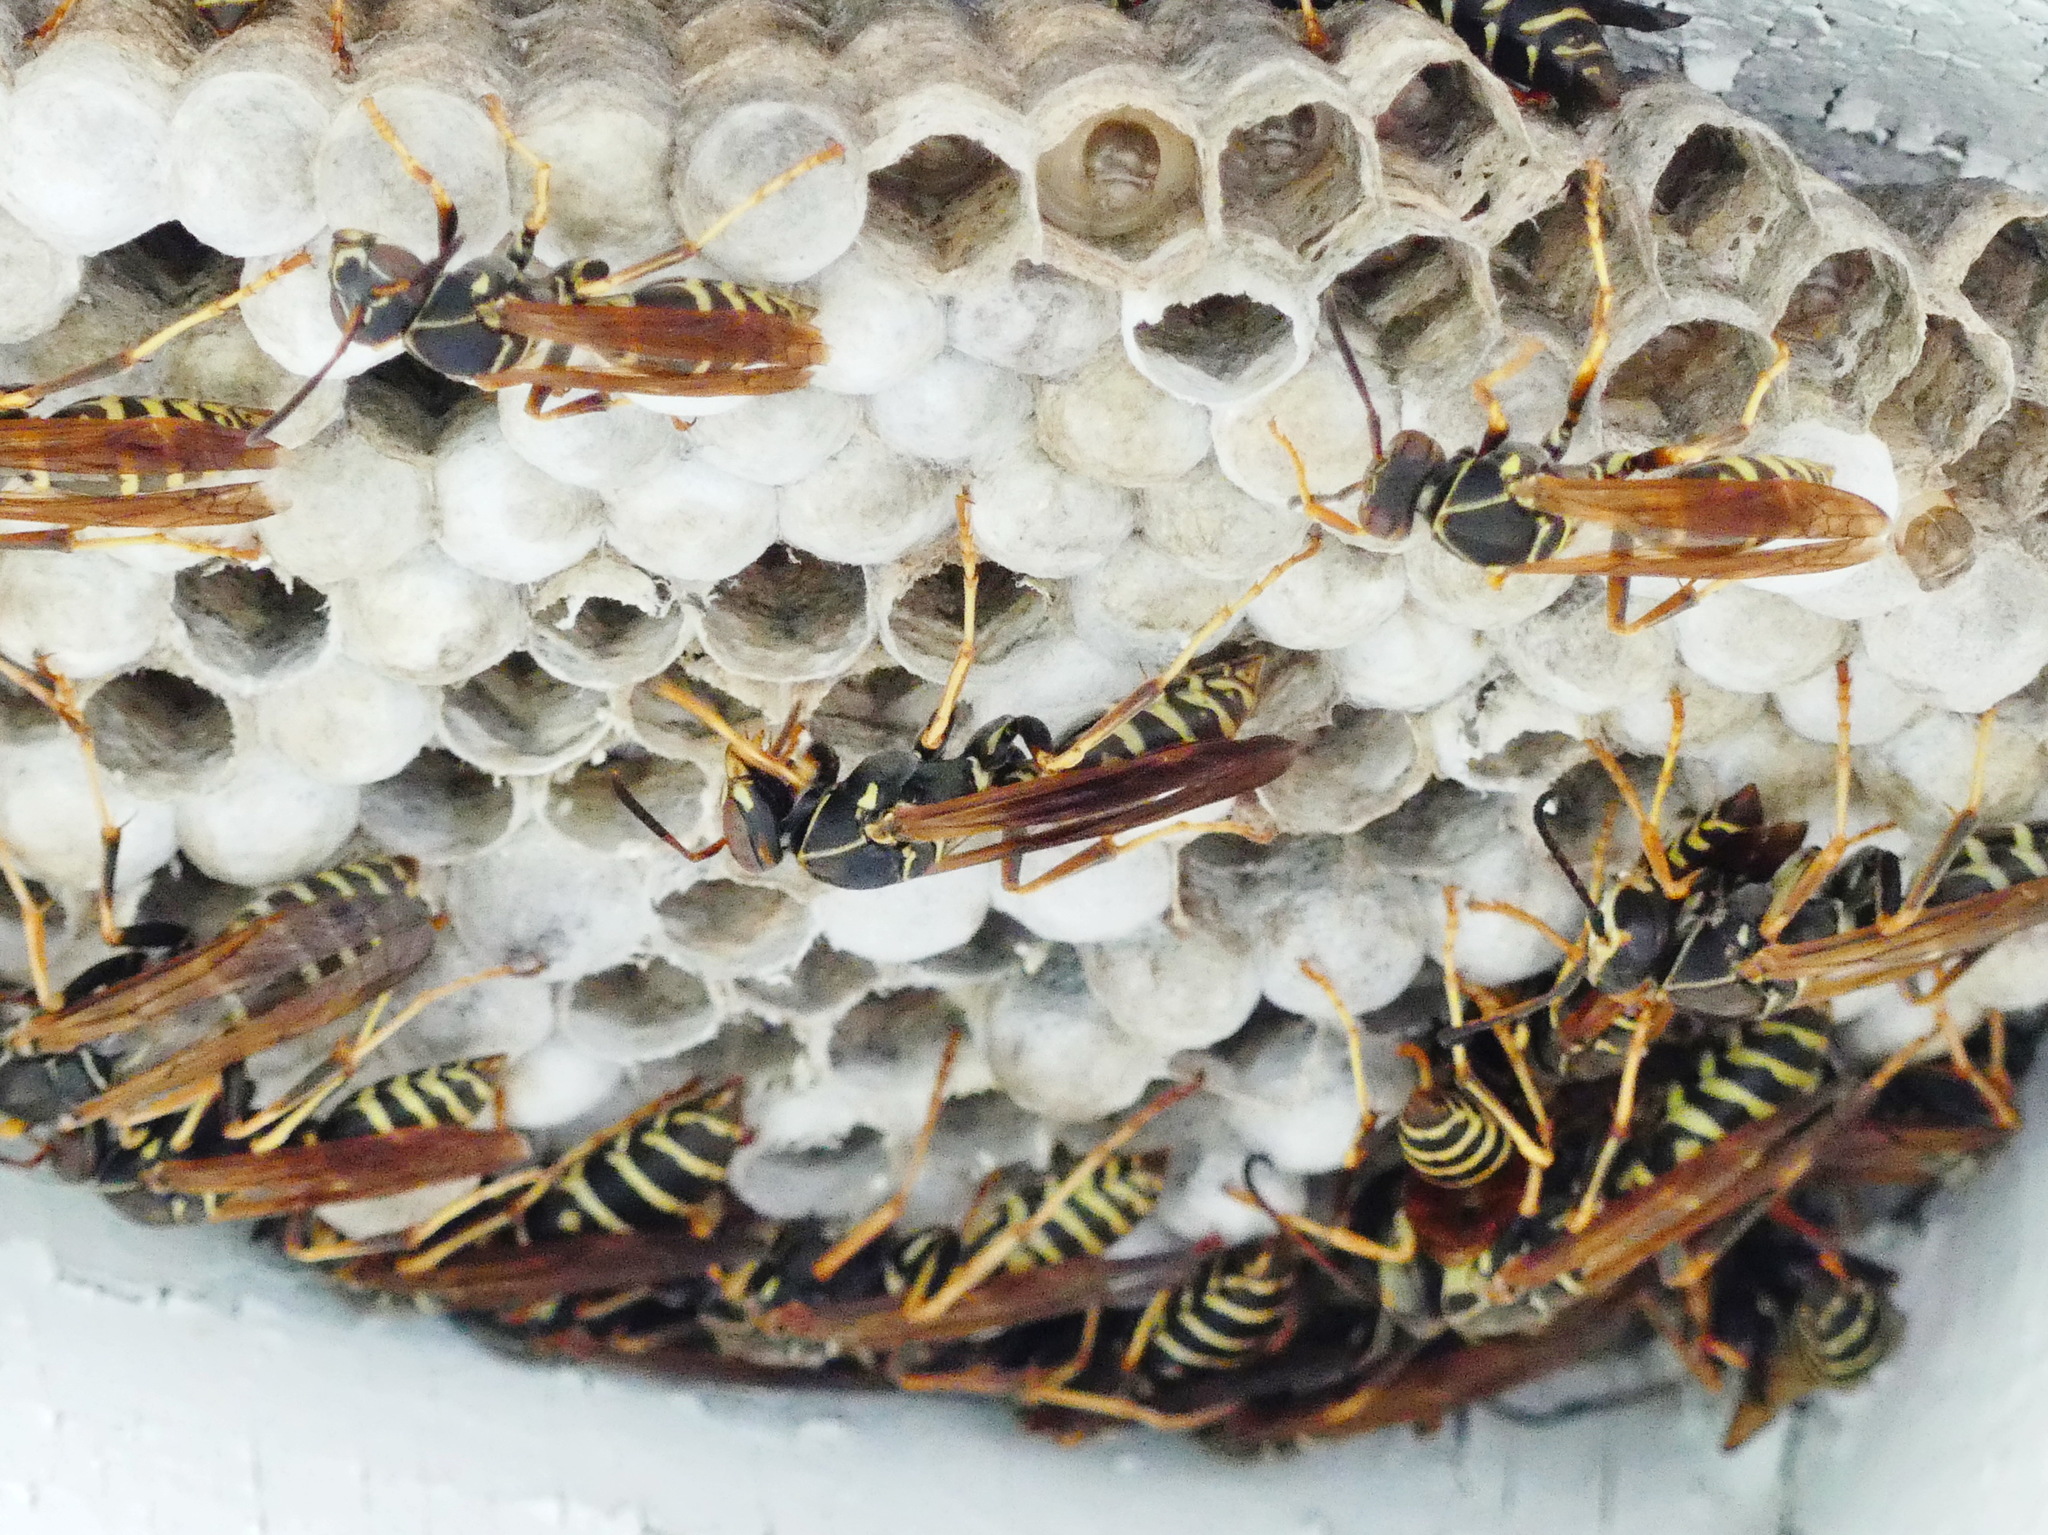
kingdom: Animalia
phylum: Arthropoda
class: Insecta
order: Hymenoptera
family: Eumenidae
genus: Polistes
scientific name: Polistes fuscatus
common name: Dark paper wasp
